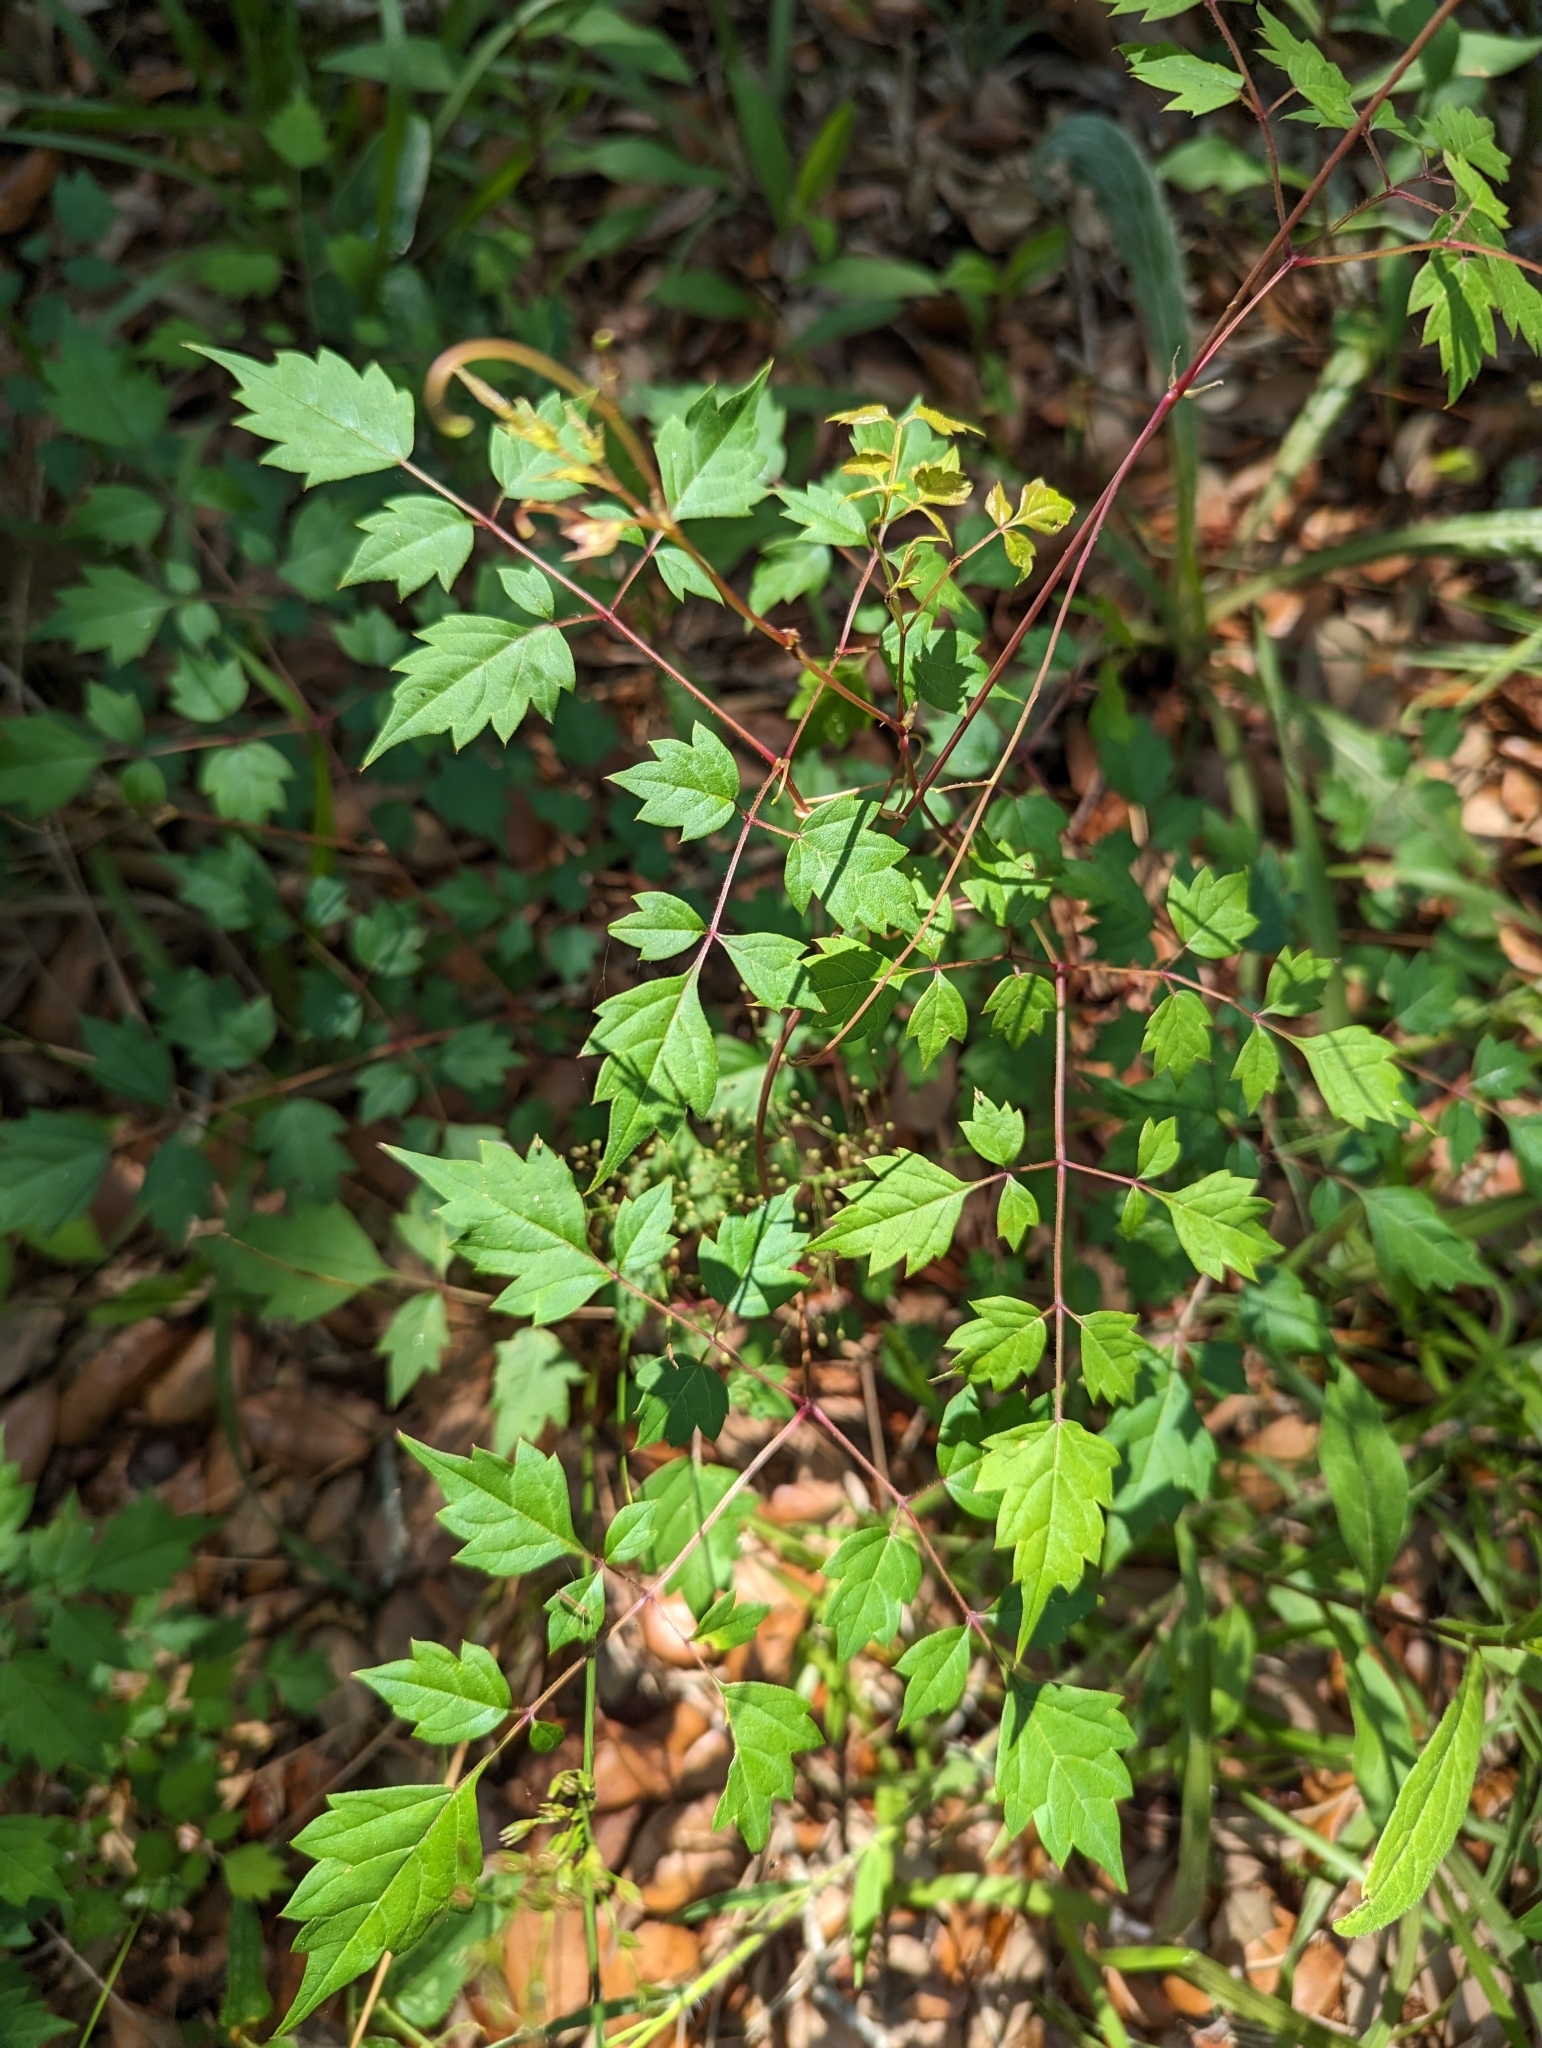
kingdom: Plantae
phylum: Tracheophyta
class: Magnoliopsida
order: Vitales
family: Vitaceae
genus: Nekemias
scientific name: Nekemias arborea
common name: Peppervine
